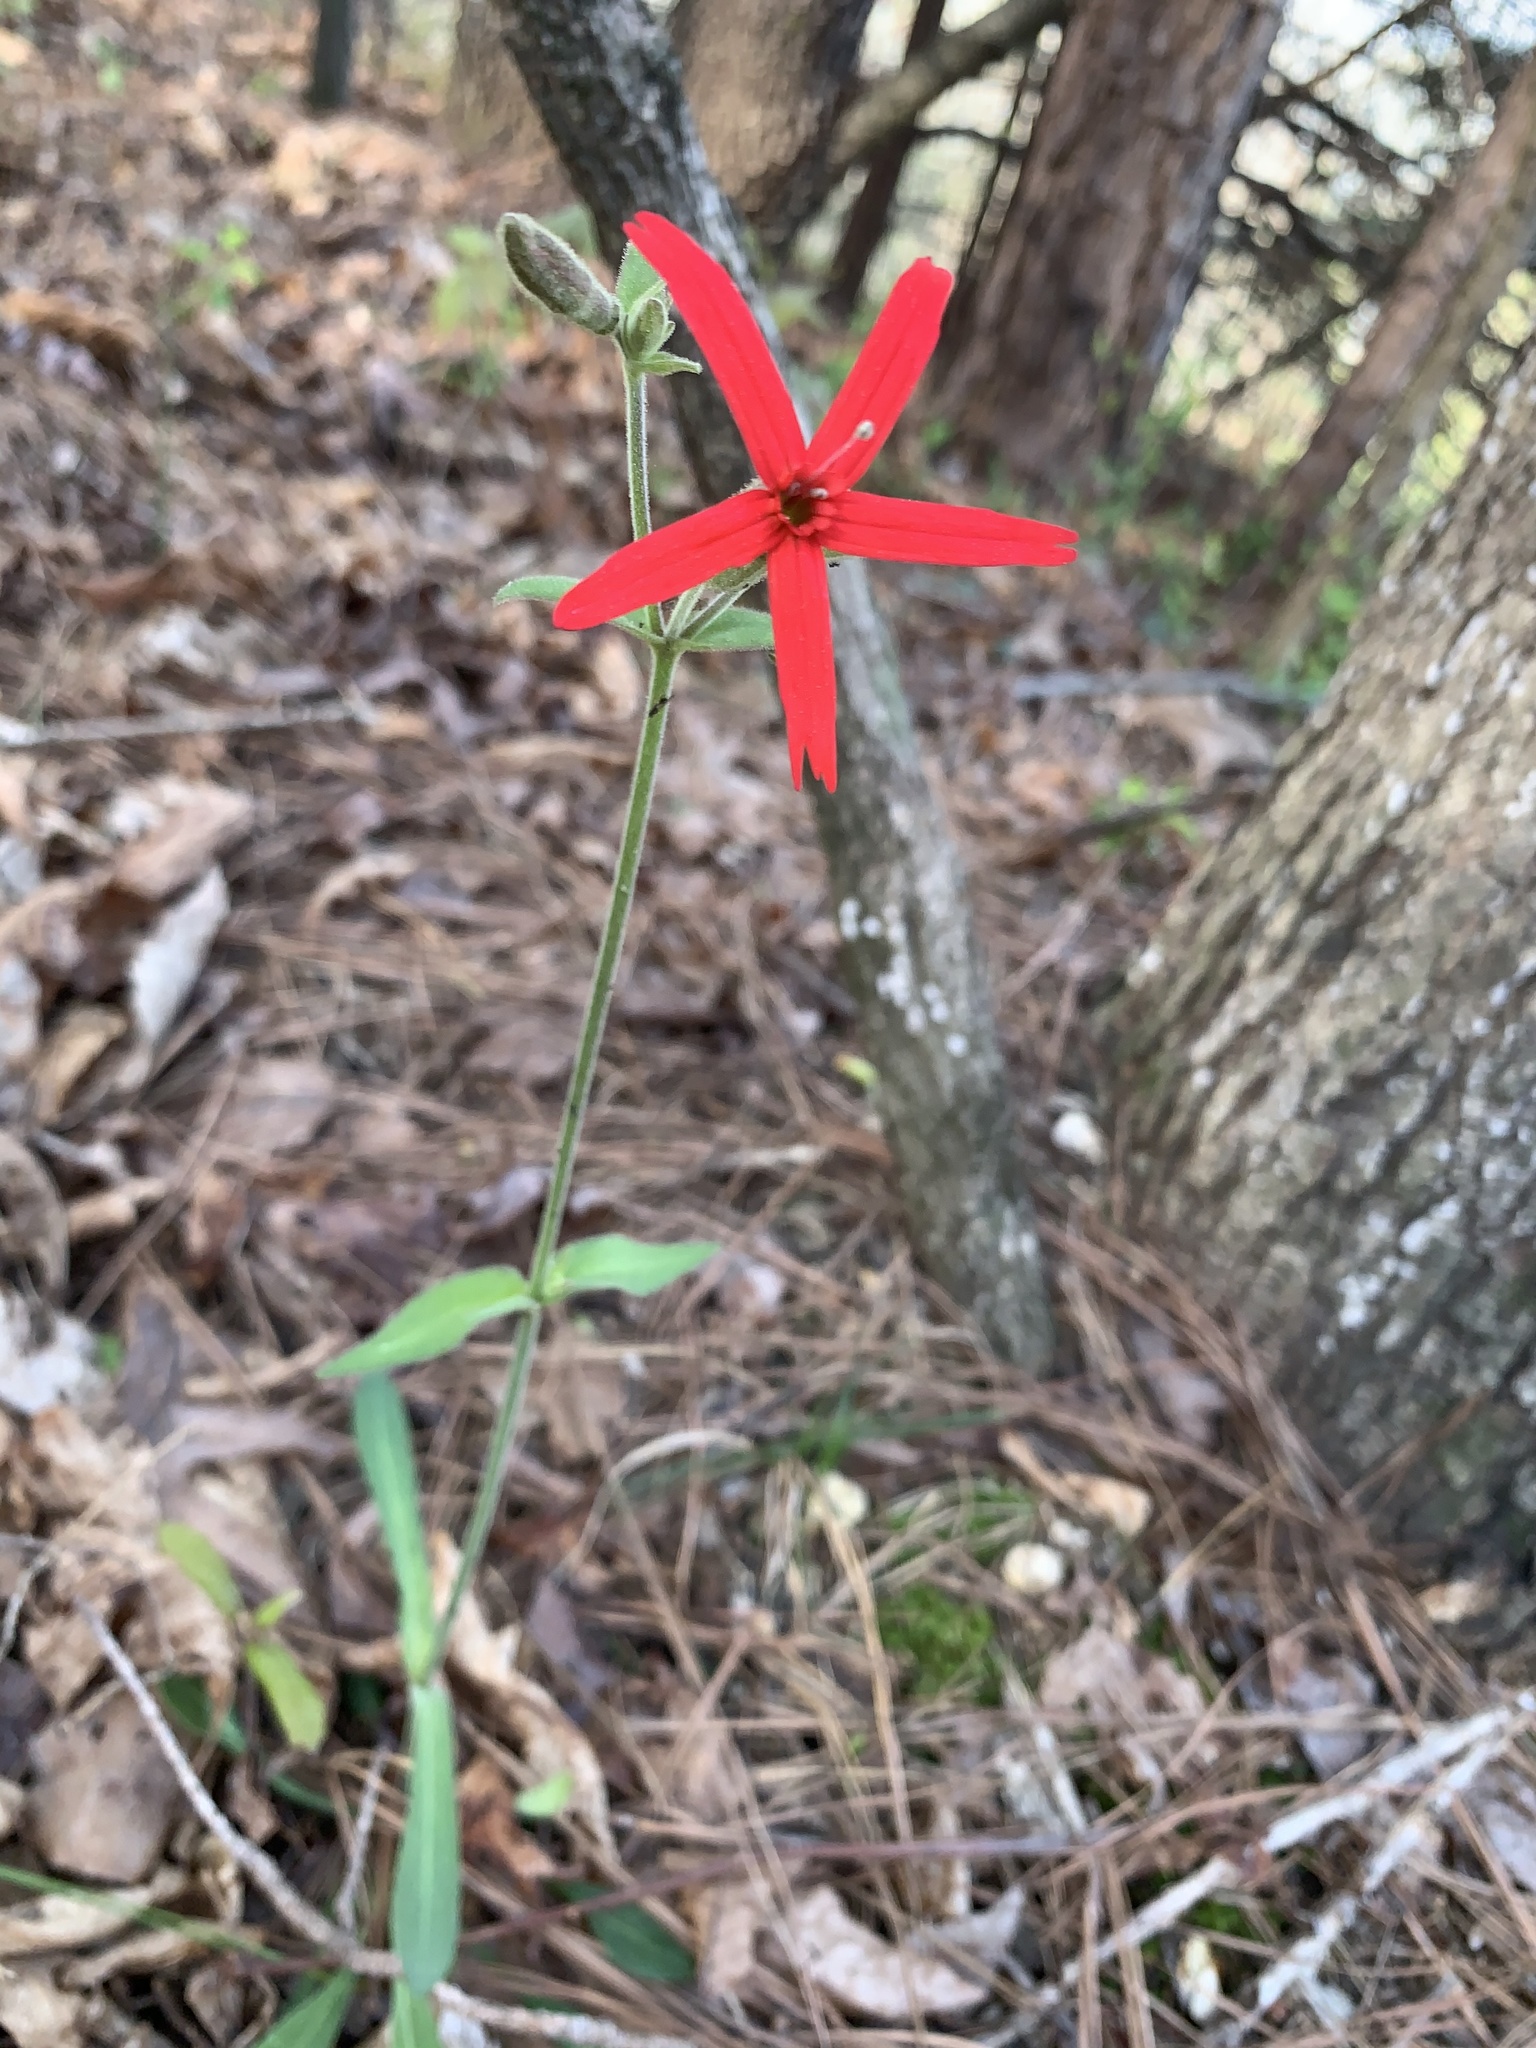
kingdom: Plantae
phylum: Tracheophyta
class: Magnoliopsida
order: Caryophyllales
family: Caryophyllaceae
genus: Silene
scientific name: Silene virginica
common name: Fire-pink
